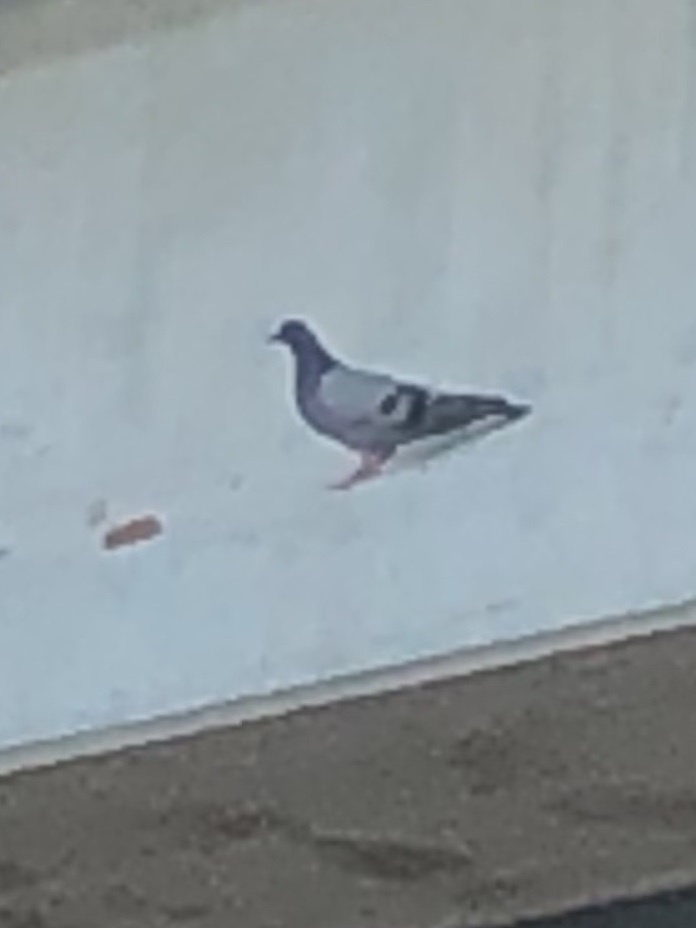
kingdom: Animalia
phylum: Chordata
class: Aves
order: Columbiformes
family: Columbidae
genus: Columba
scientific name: Columba livia
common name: Rock pigeon
